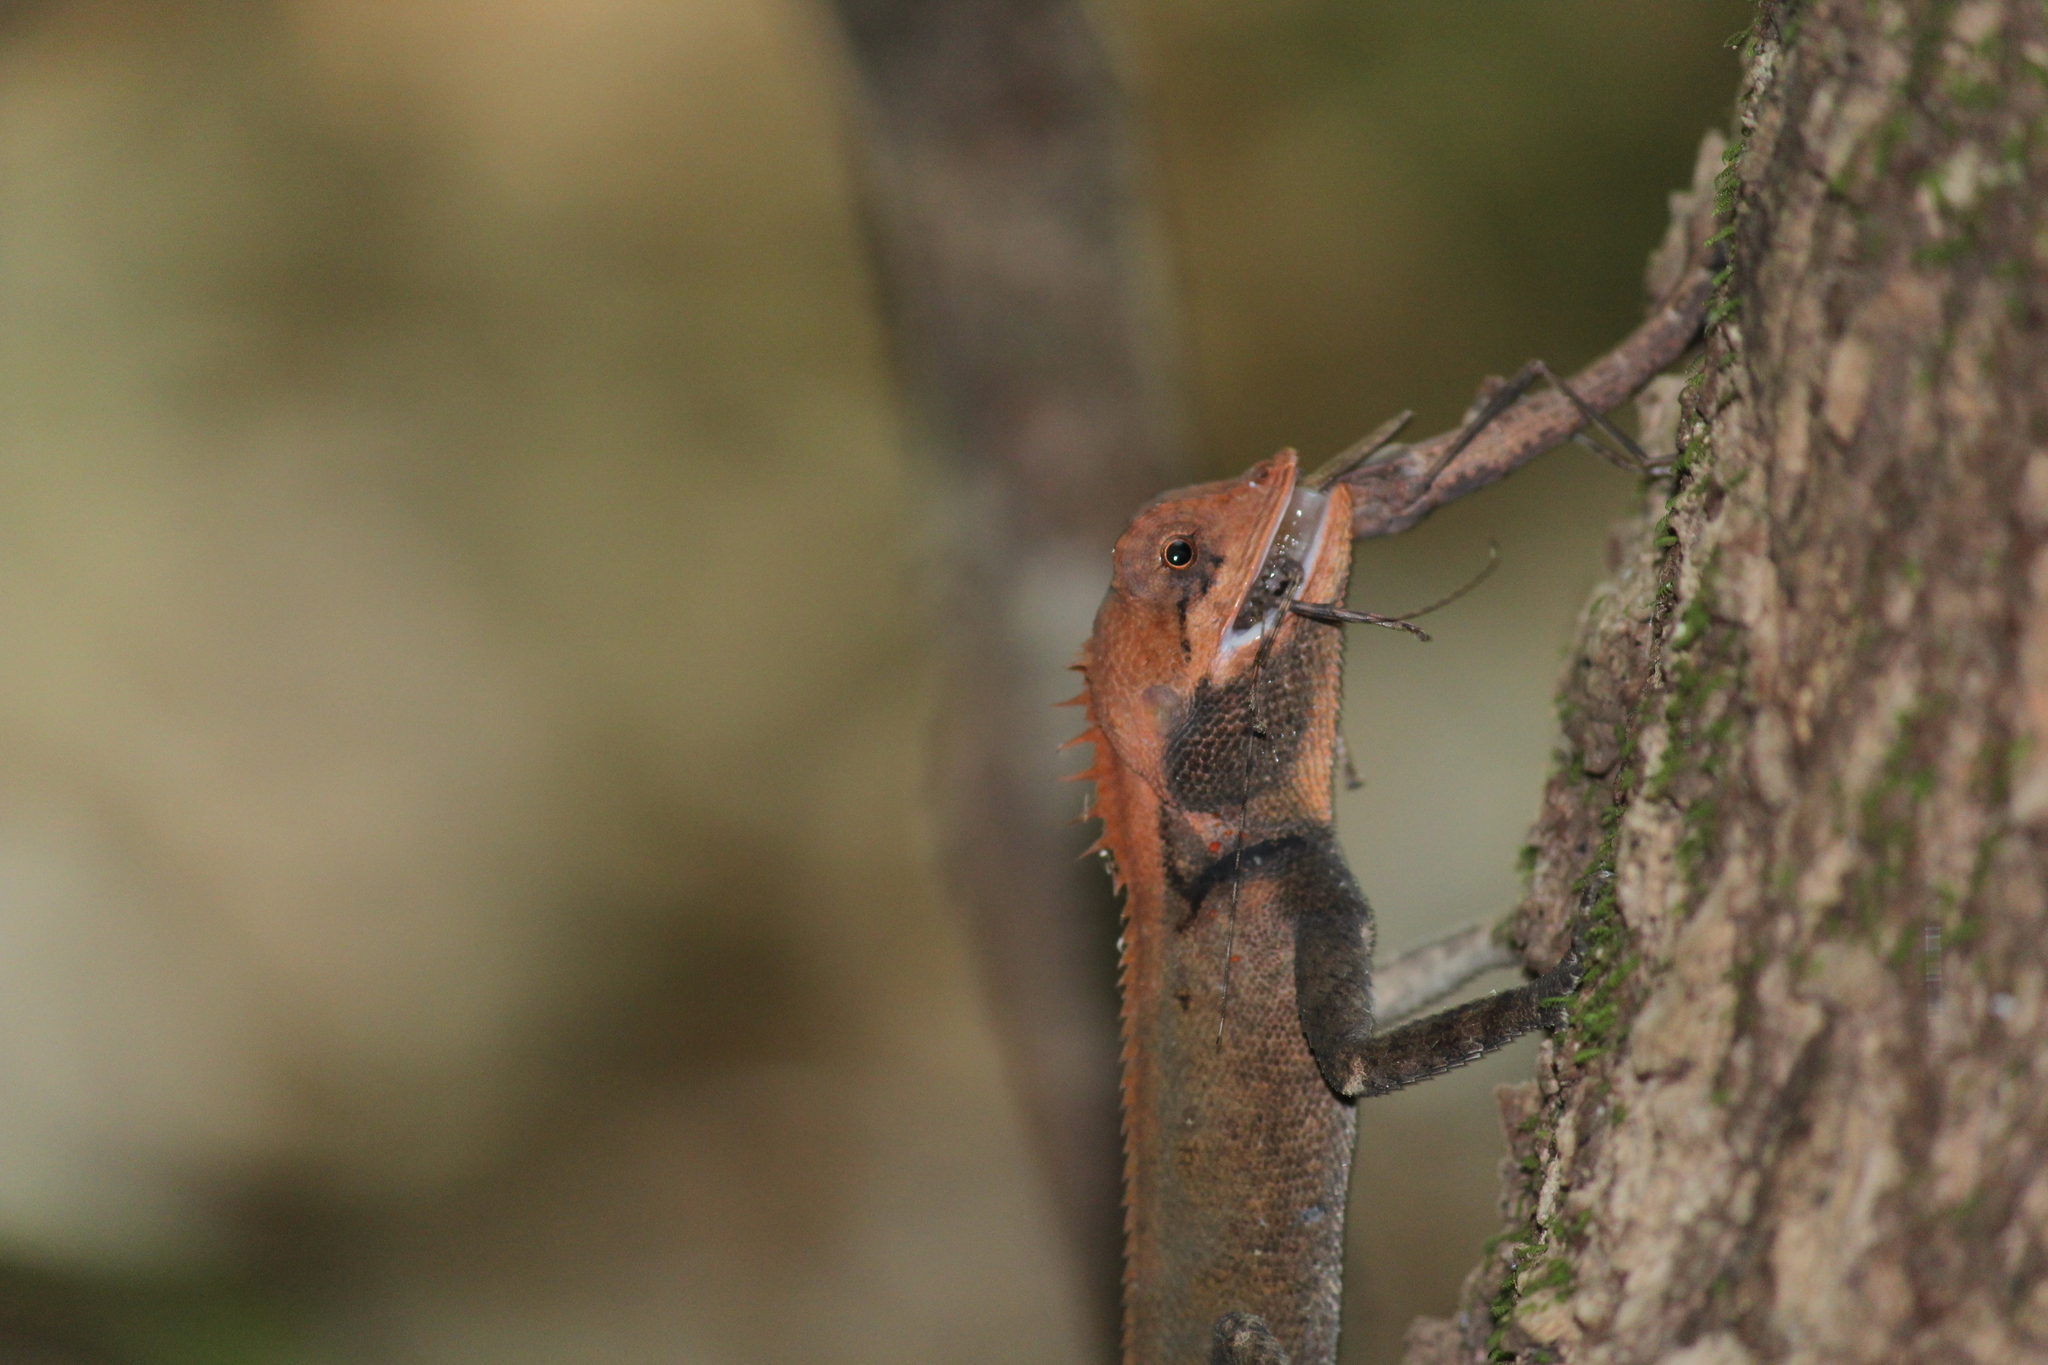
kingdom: Animalia
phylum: Chordata
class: Squamata
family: Agamidae
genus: Monilesaurus
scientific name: Monilesaurus rouxii
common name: Roux's forest lizard
